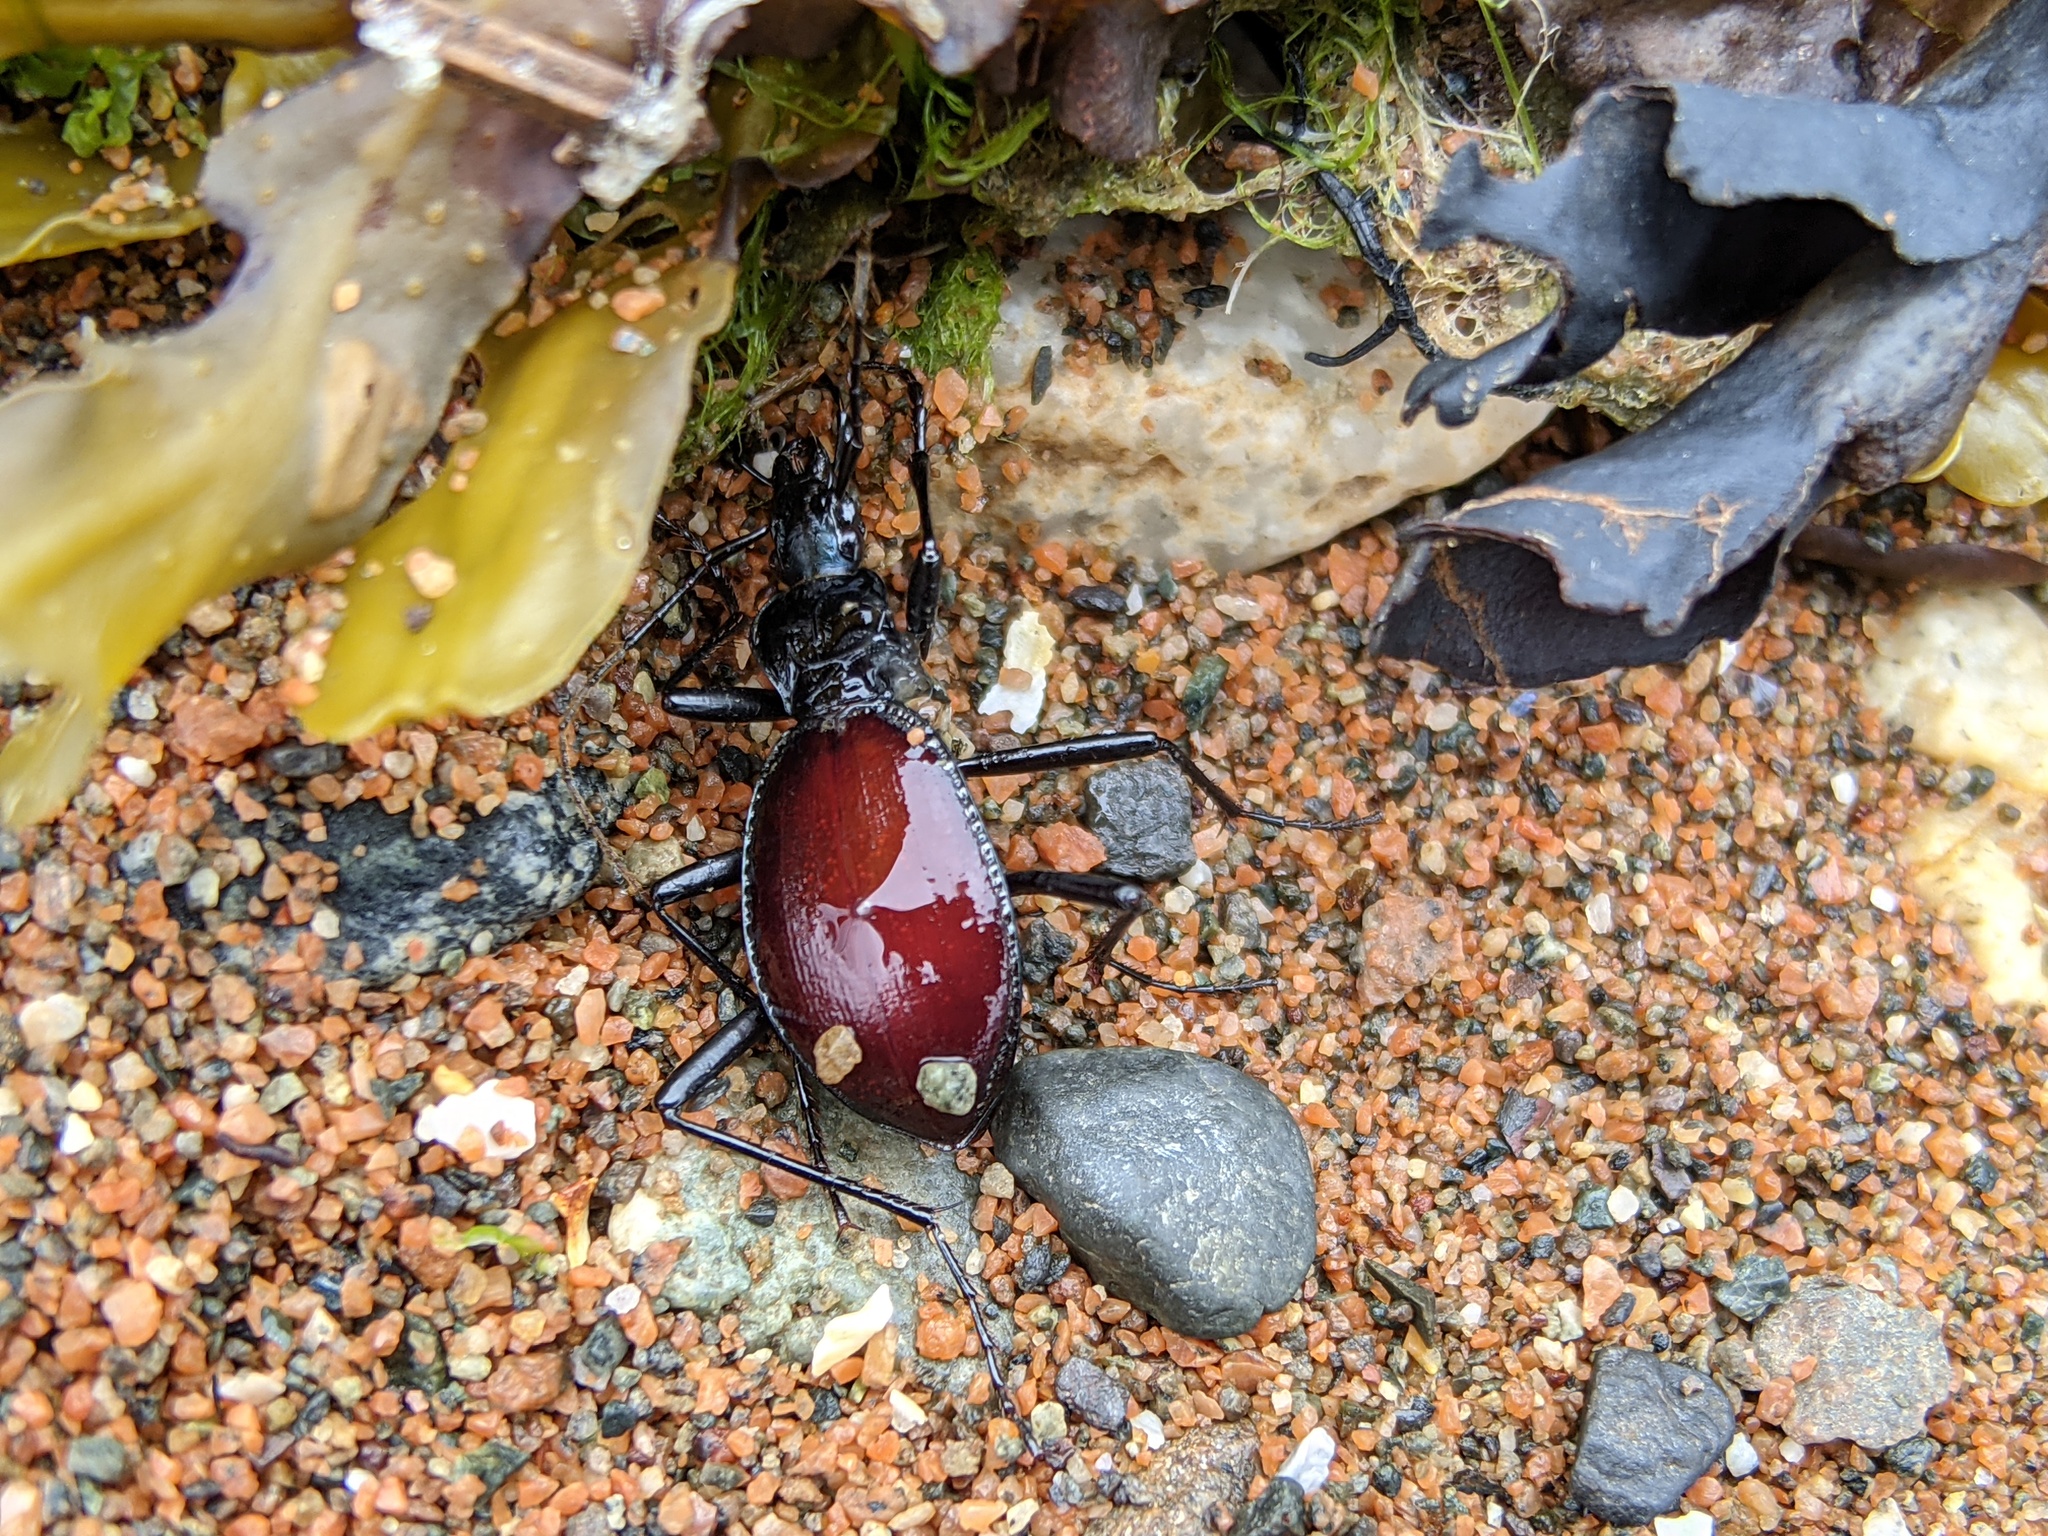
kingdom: Animalia
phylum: Arthropoda
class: Insecta
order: Coleoptera
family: Carabidae
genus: Scaphinotus
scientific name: Scaphinotus angusticollis
